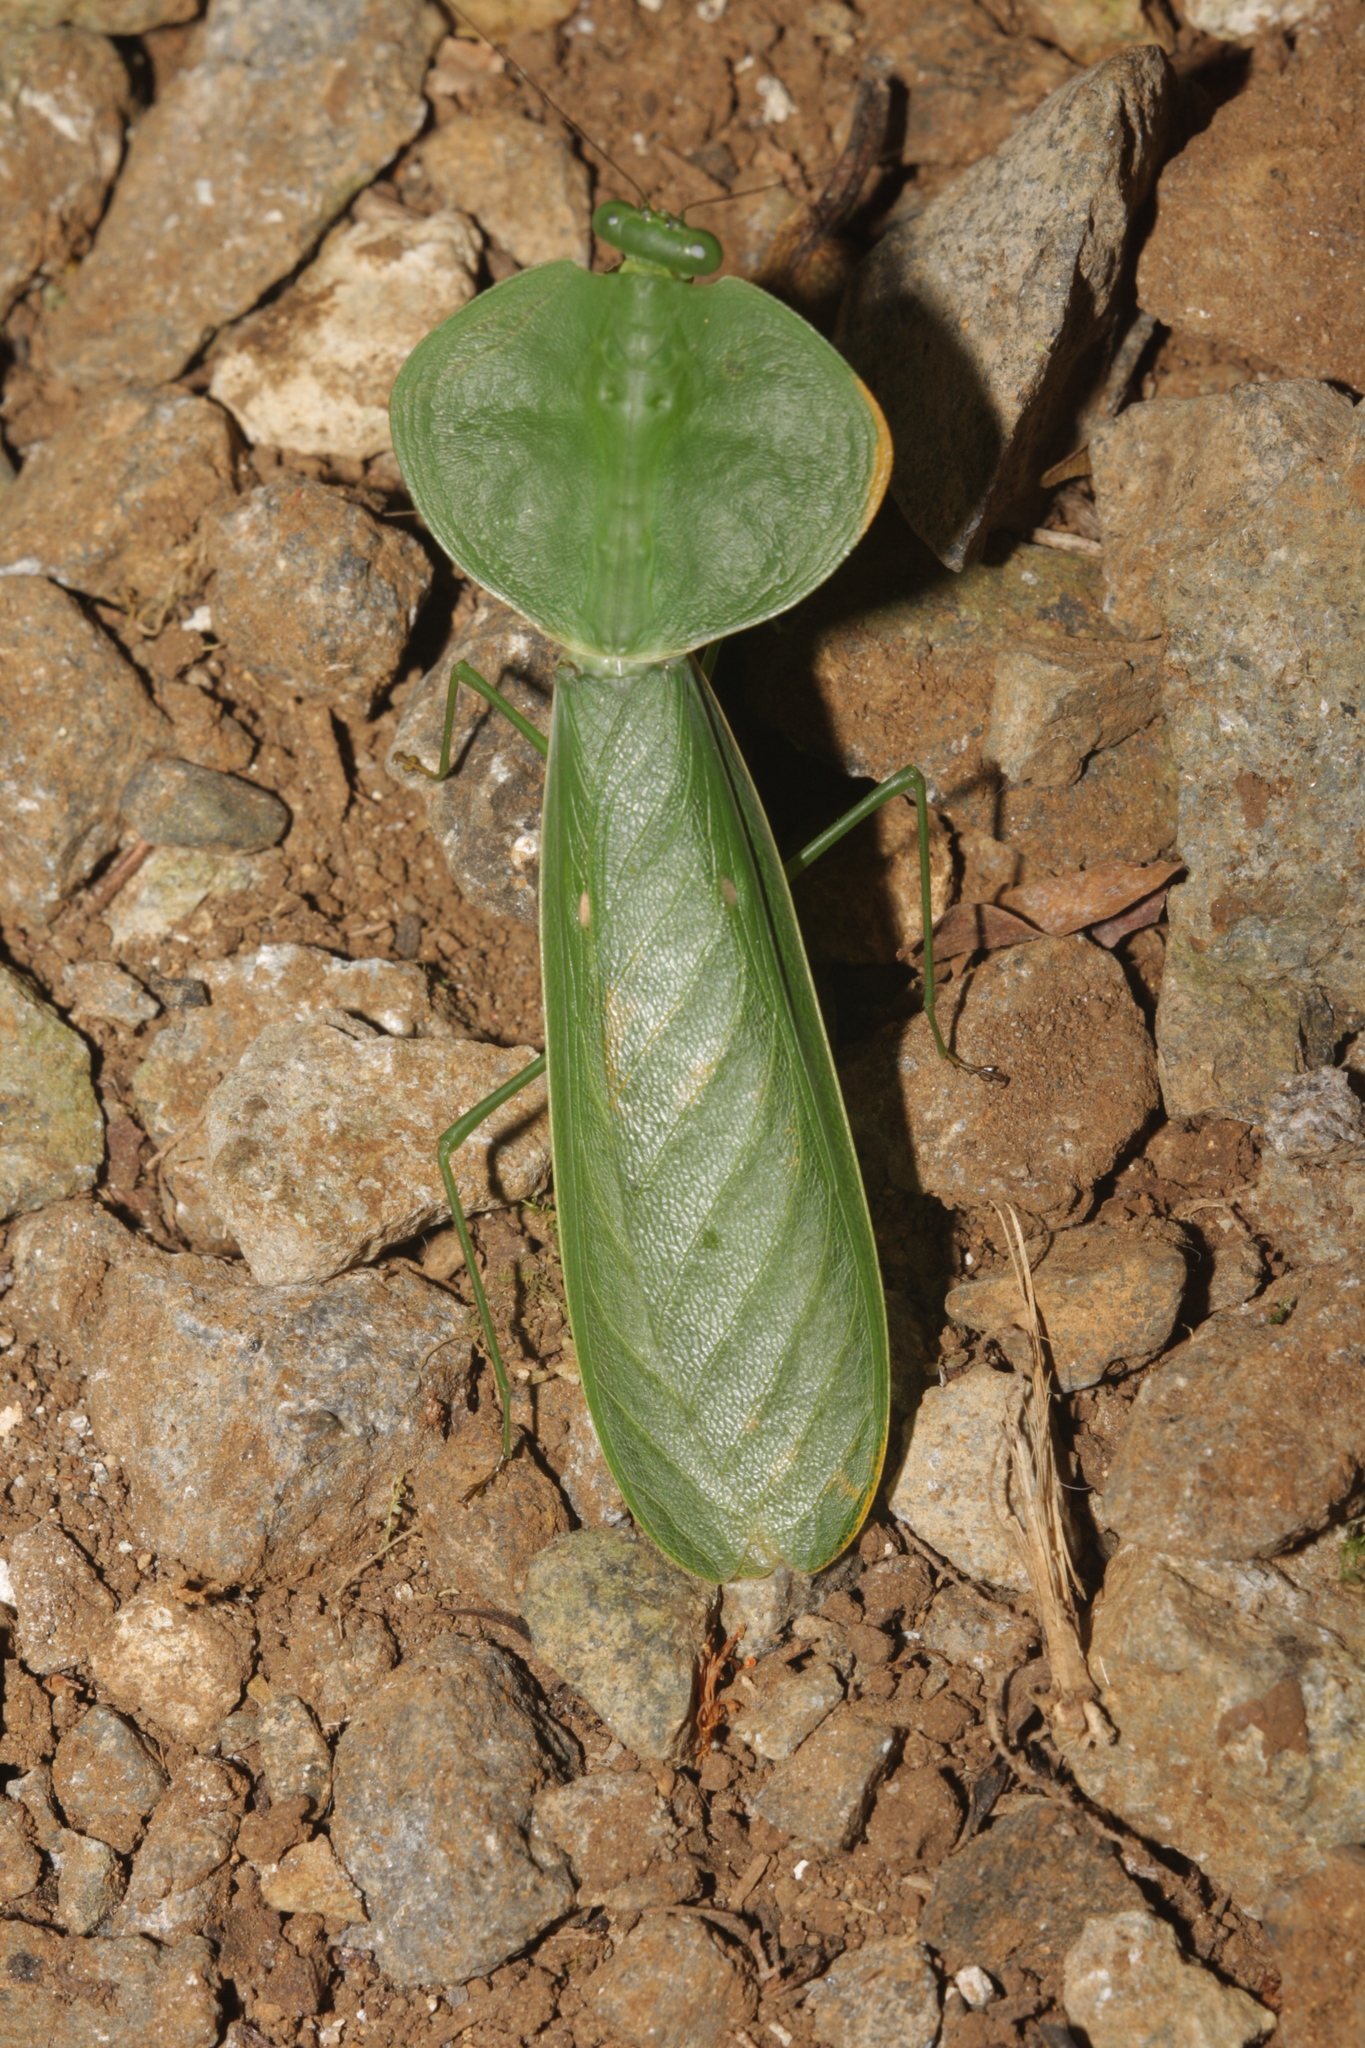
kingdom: Animalia
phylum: Arthropoda
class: Insecta
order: Mantodea
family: Mantidae
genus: Choeradodis
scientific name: Choeradodis rhombicollis
